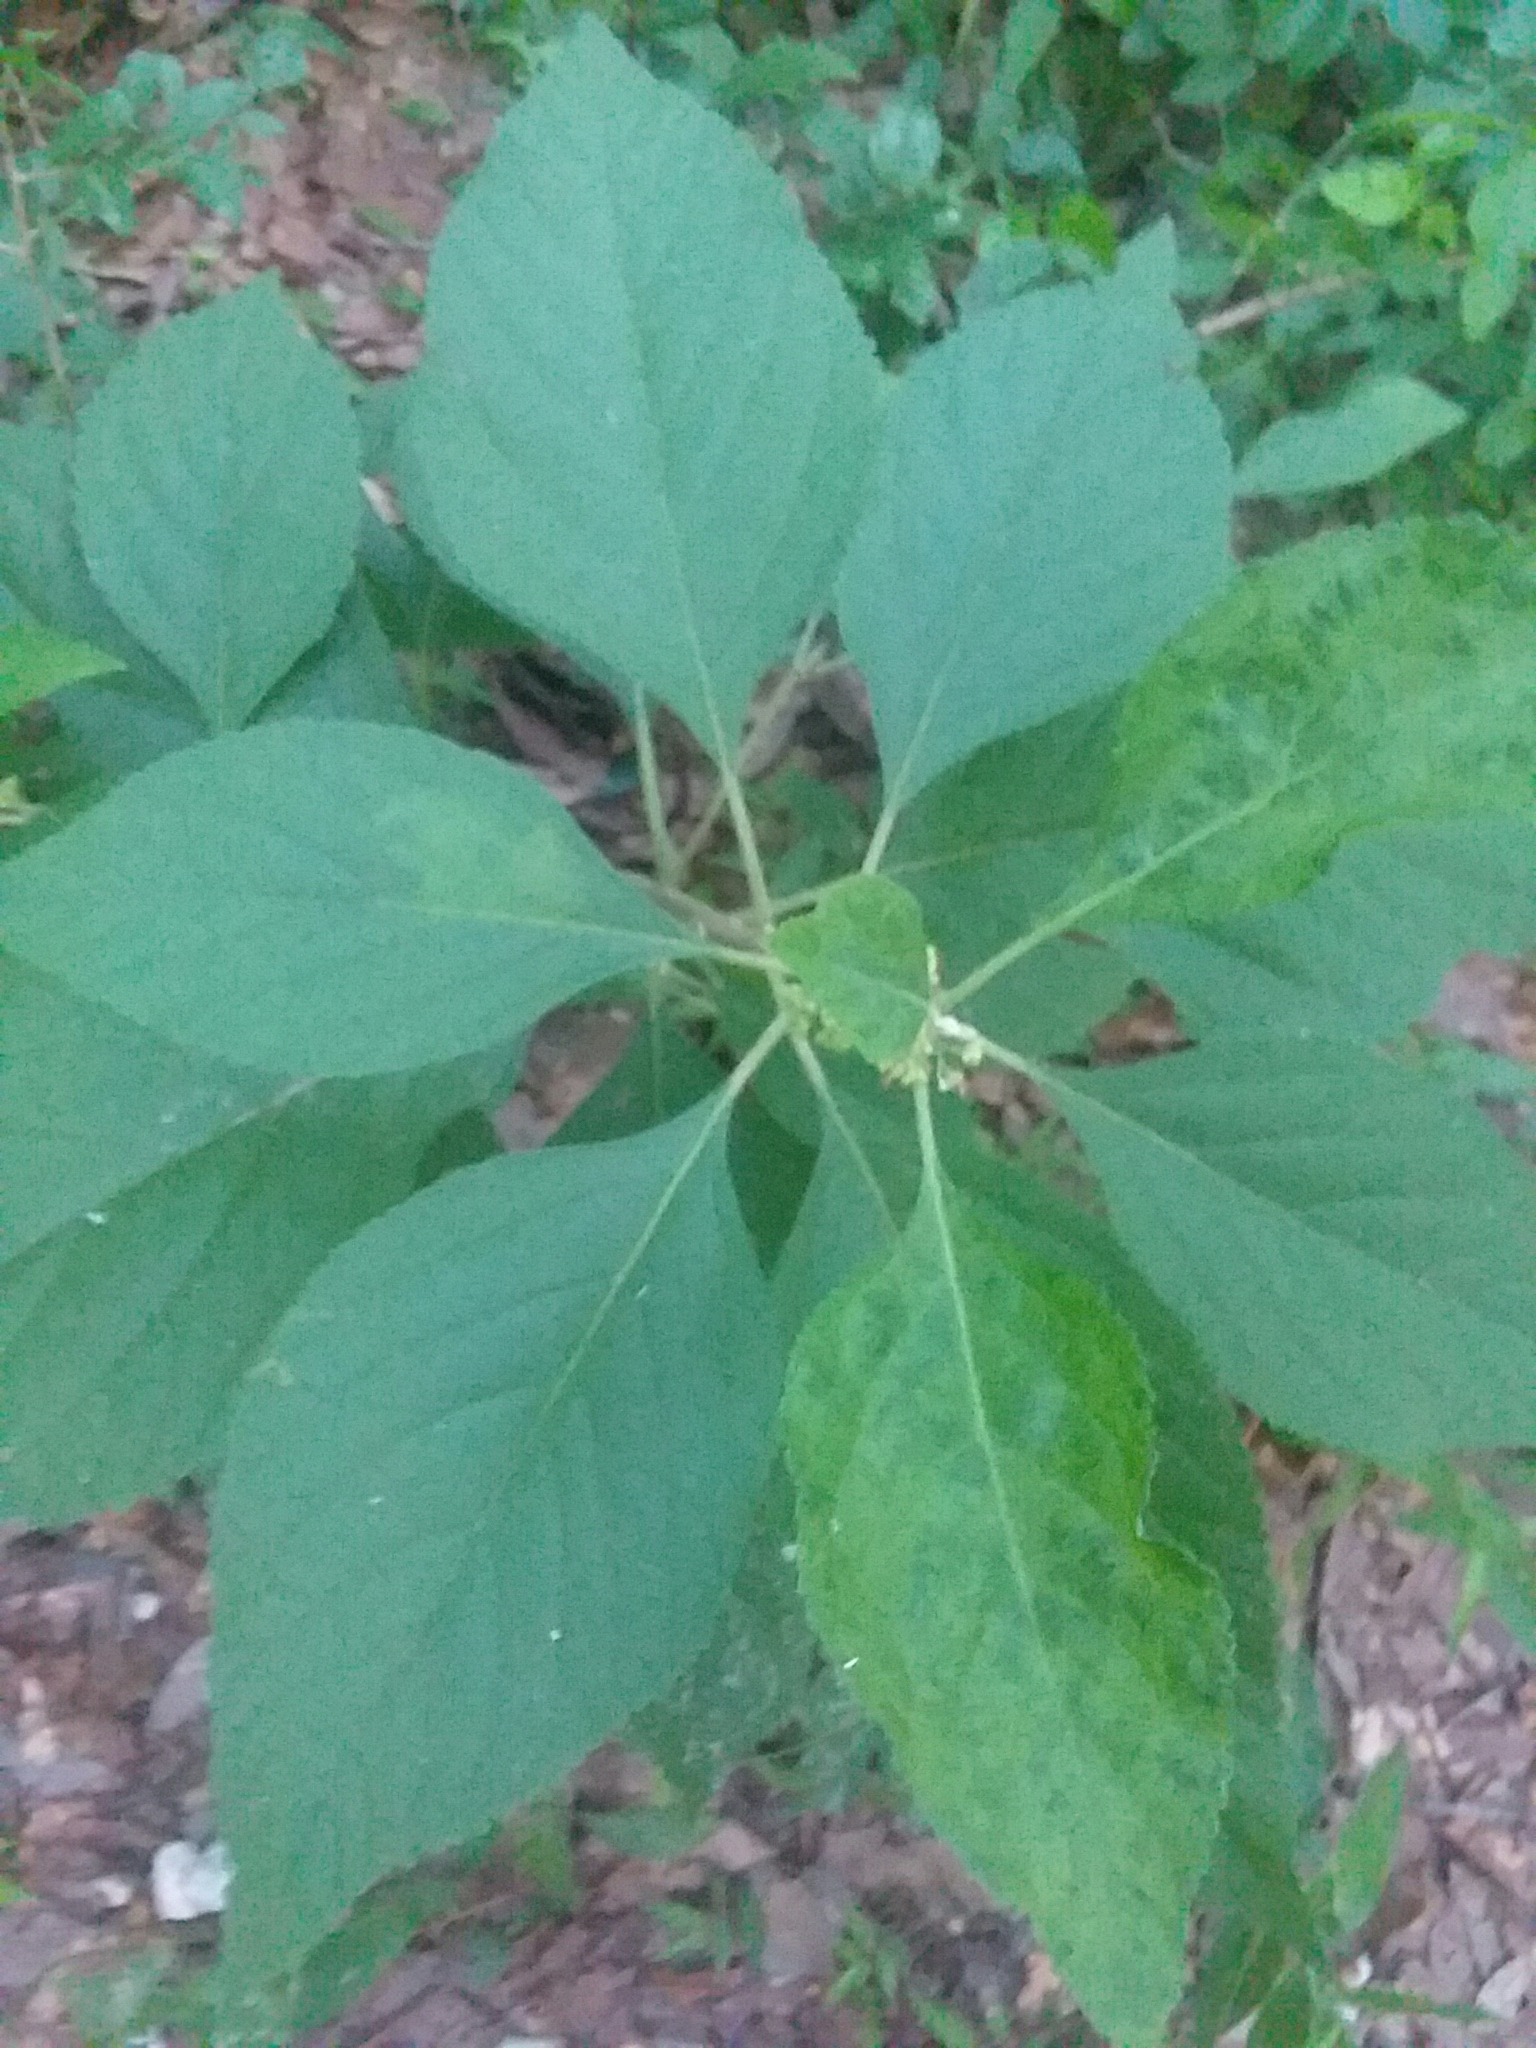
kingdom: Plantae
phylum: Tracheophyta
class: Magnoliopsida
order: Lamiales
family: Lamiaceae
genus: Callicarpa
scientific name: Callicarpa americana
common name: American beautyberry
